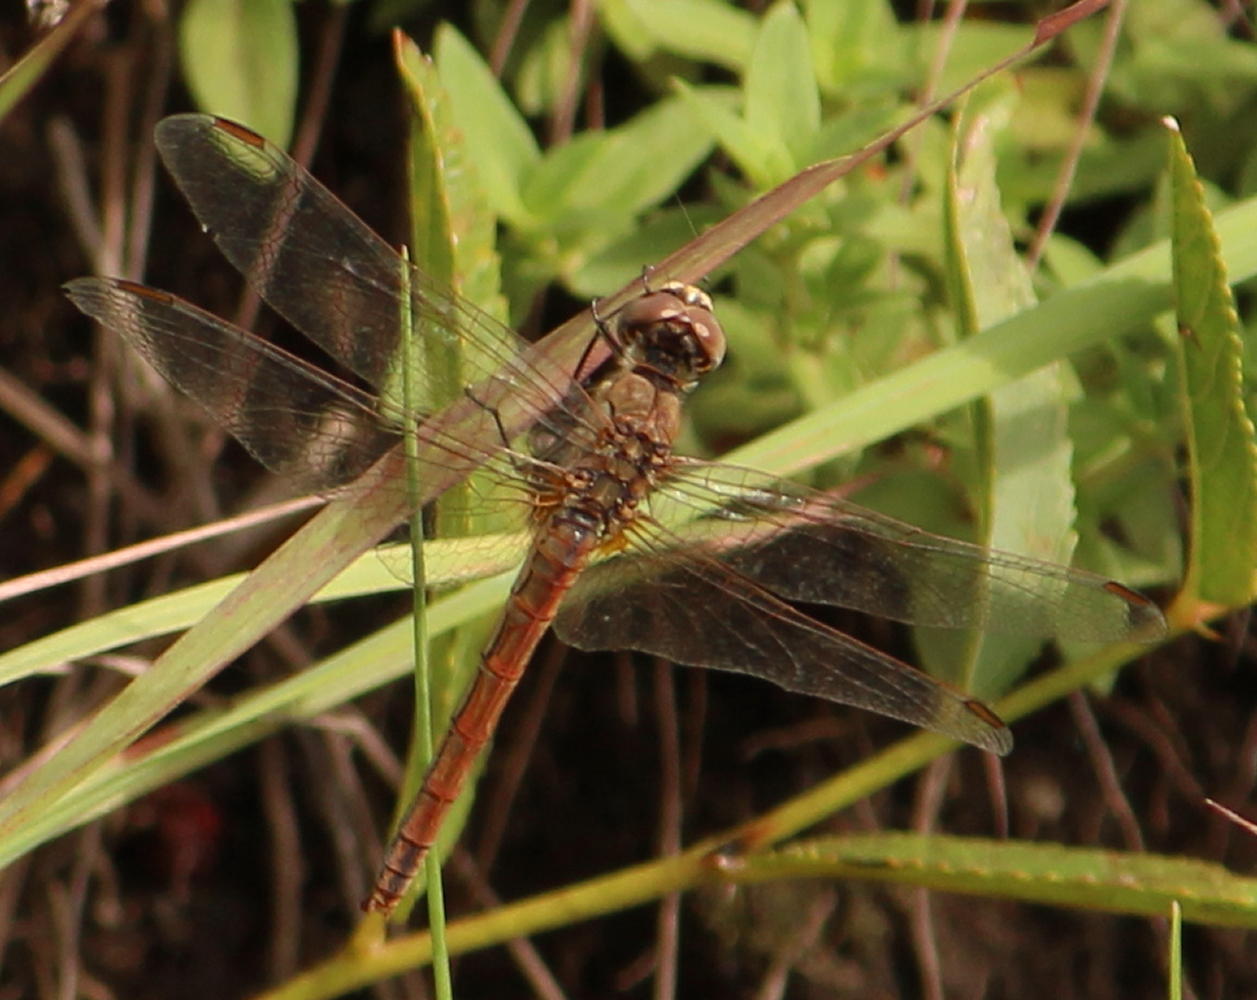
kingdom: Animalia
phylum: Arthropoda
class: Insecta
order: Odonata
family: Libellulidae
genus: Sympetrum
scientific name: Sympetrum fonscolombii
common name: Red-veined darter
